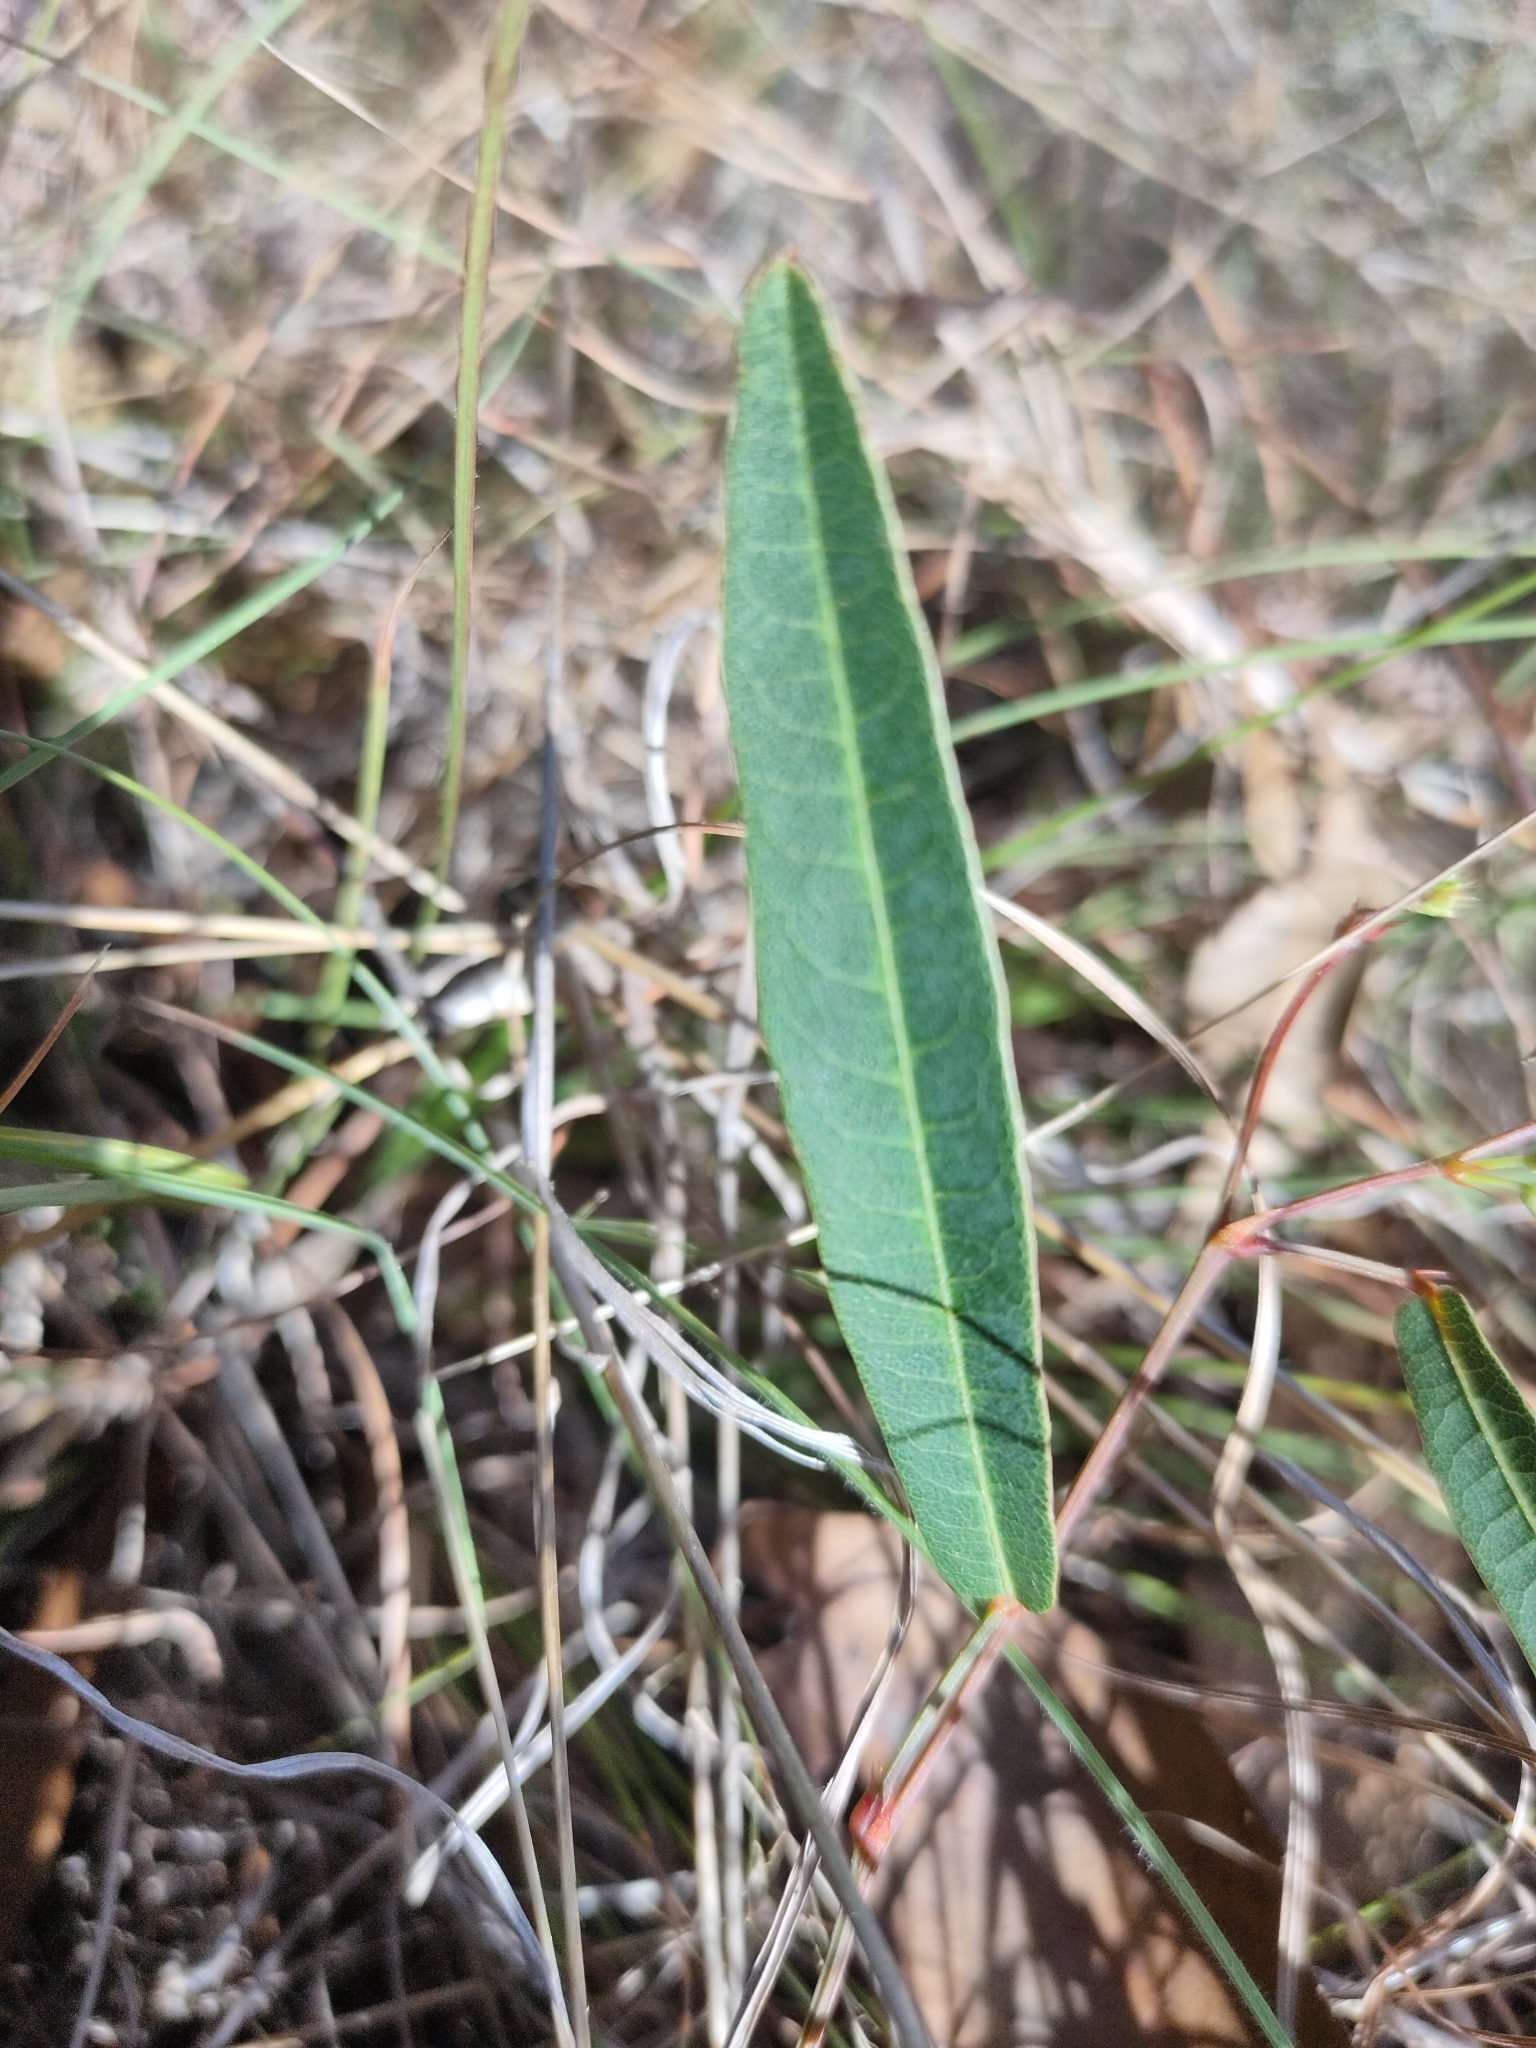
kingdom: Plantae
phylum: Tracheophyta
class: Magnoliopsida
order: Fabales
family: Fabaceae
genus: Hardenbergia
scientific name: Hardenbergia violacea
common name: Coral-pea
